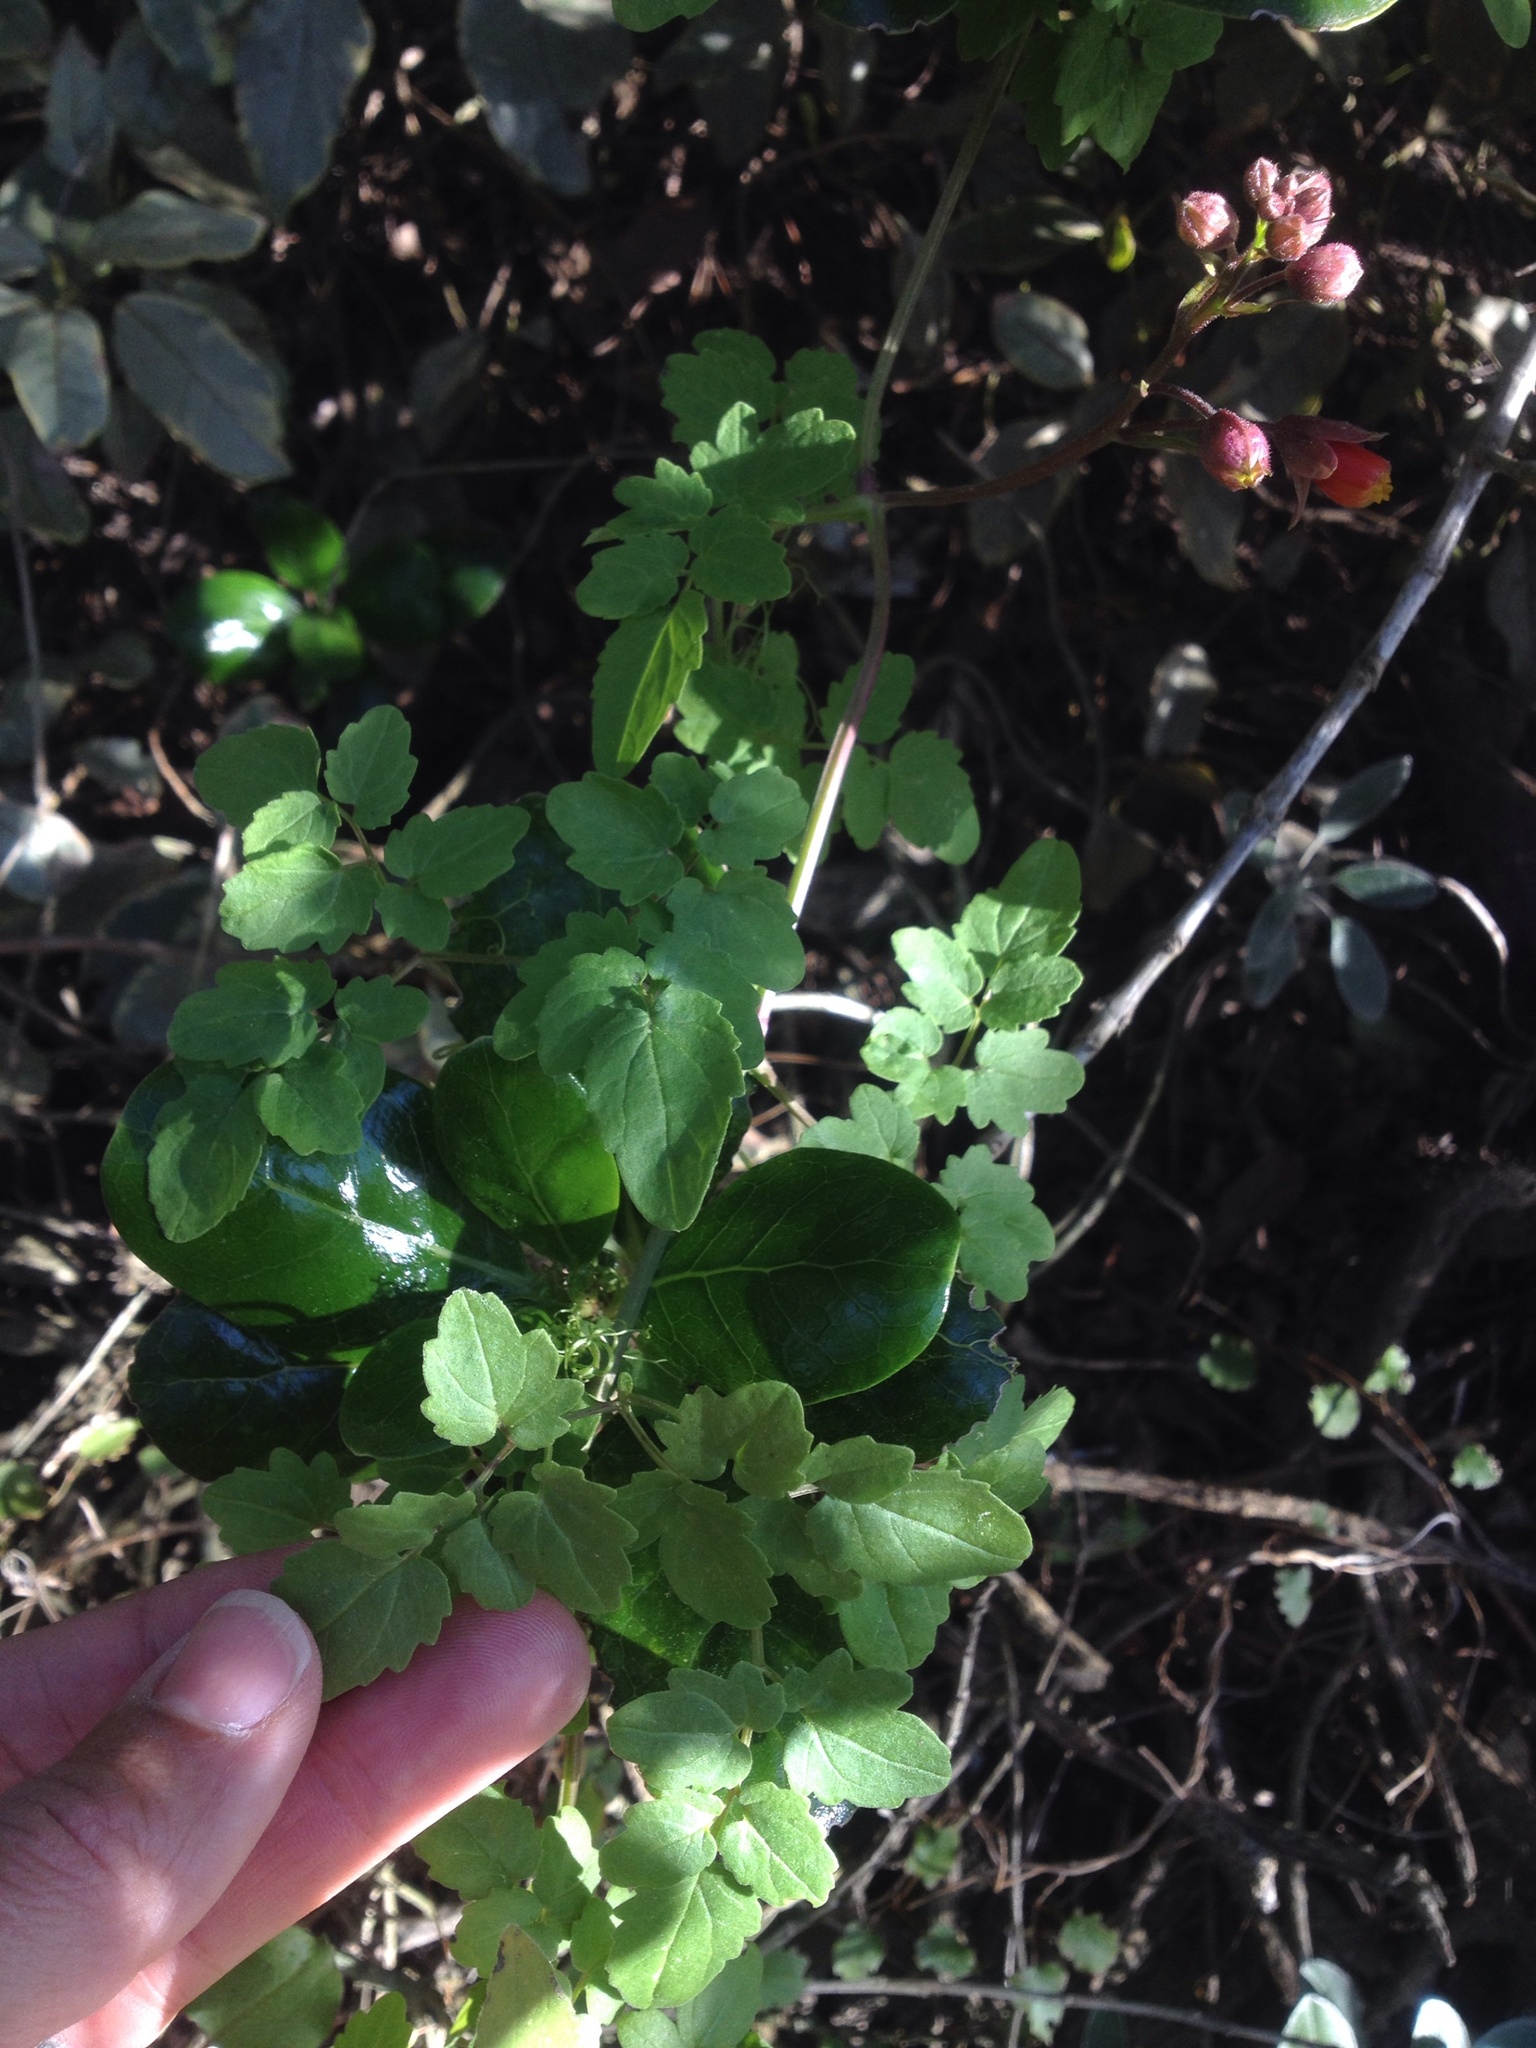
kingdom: Plantae
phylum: Tracheophyta
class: Magnoliopsida
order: Lamiales
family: Bignoniaceae
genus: Eccremocarpus
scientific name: Eccremocarpus scaber
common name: Chilean glory-flower
